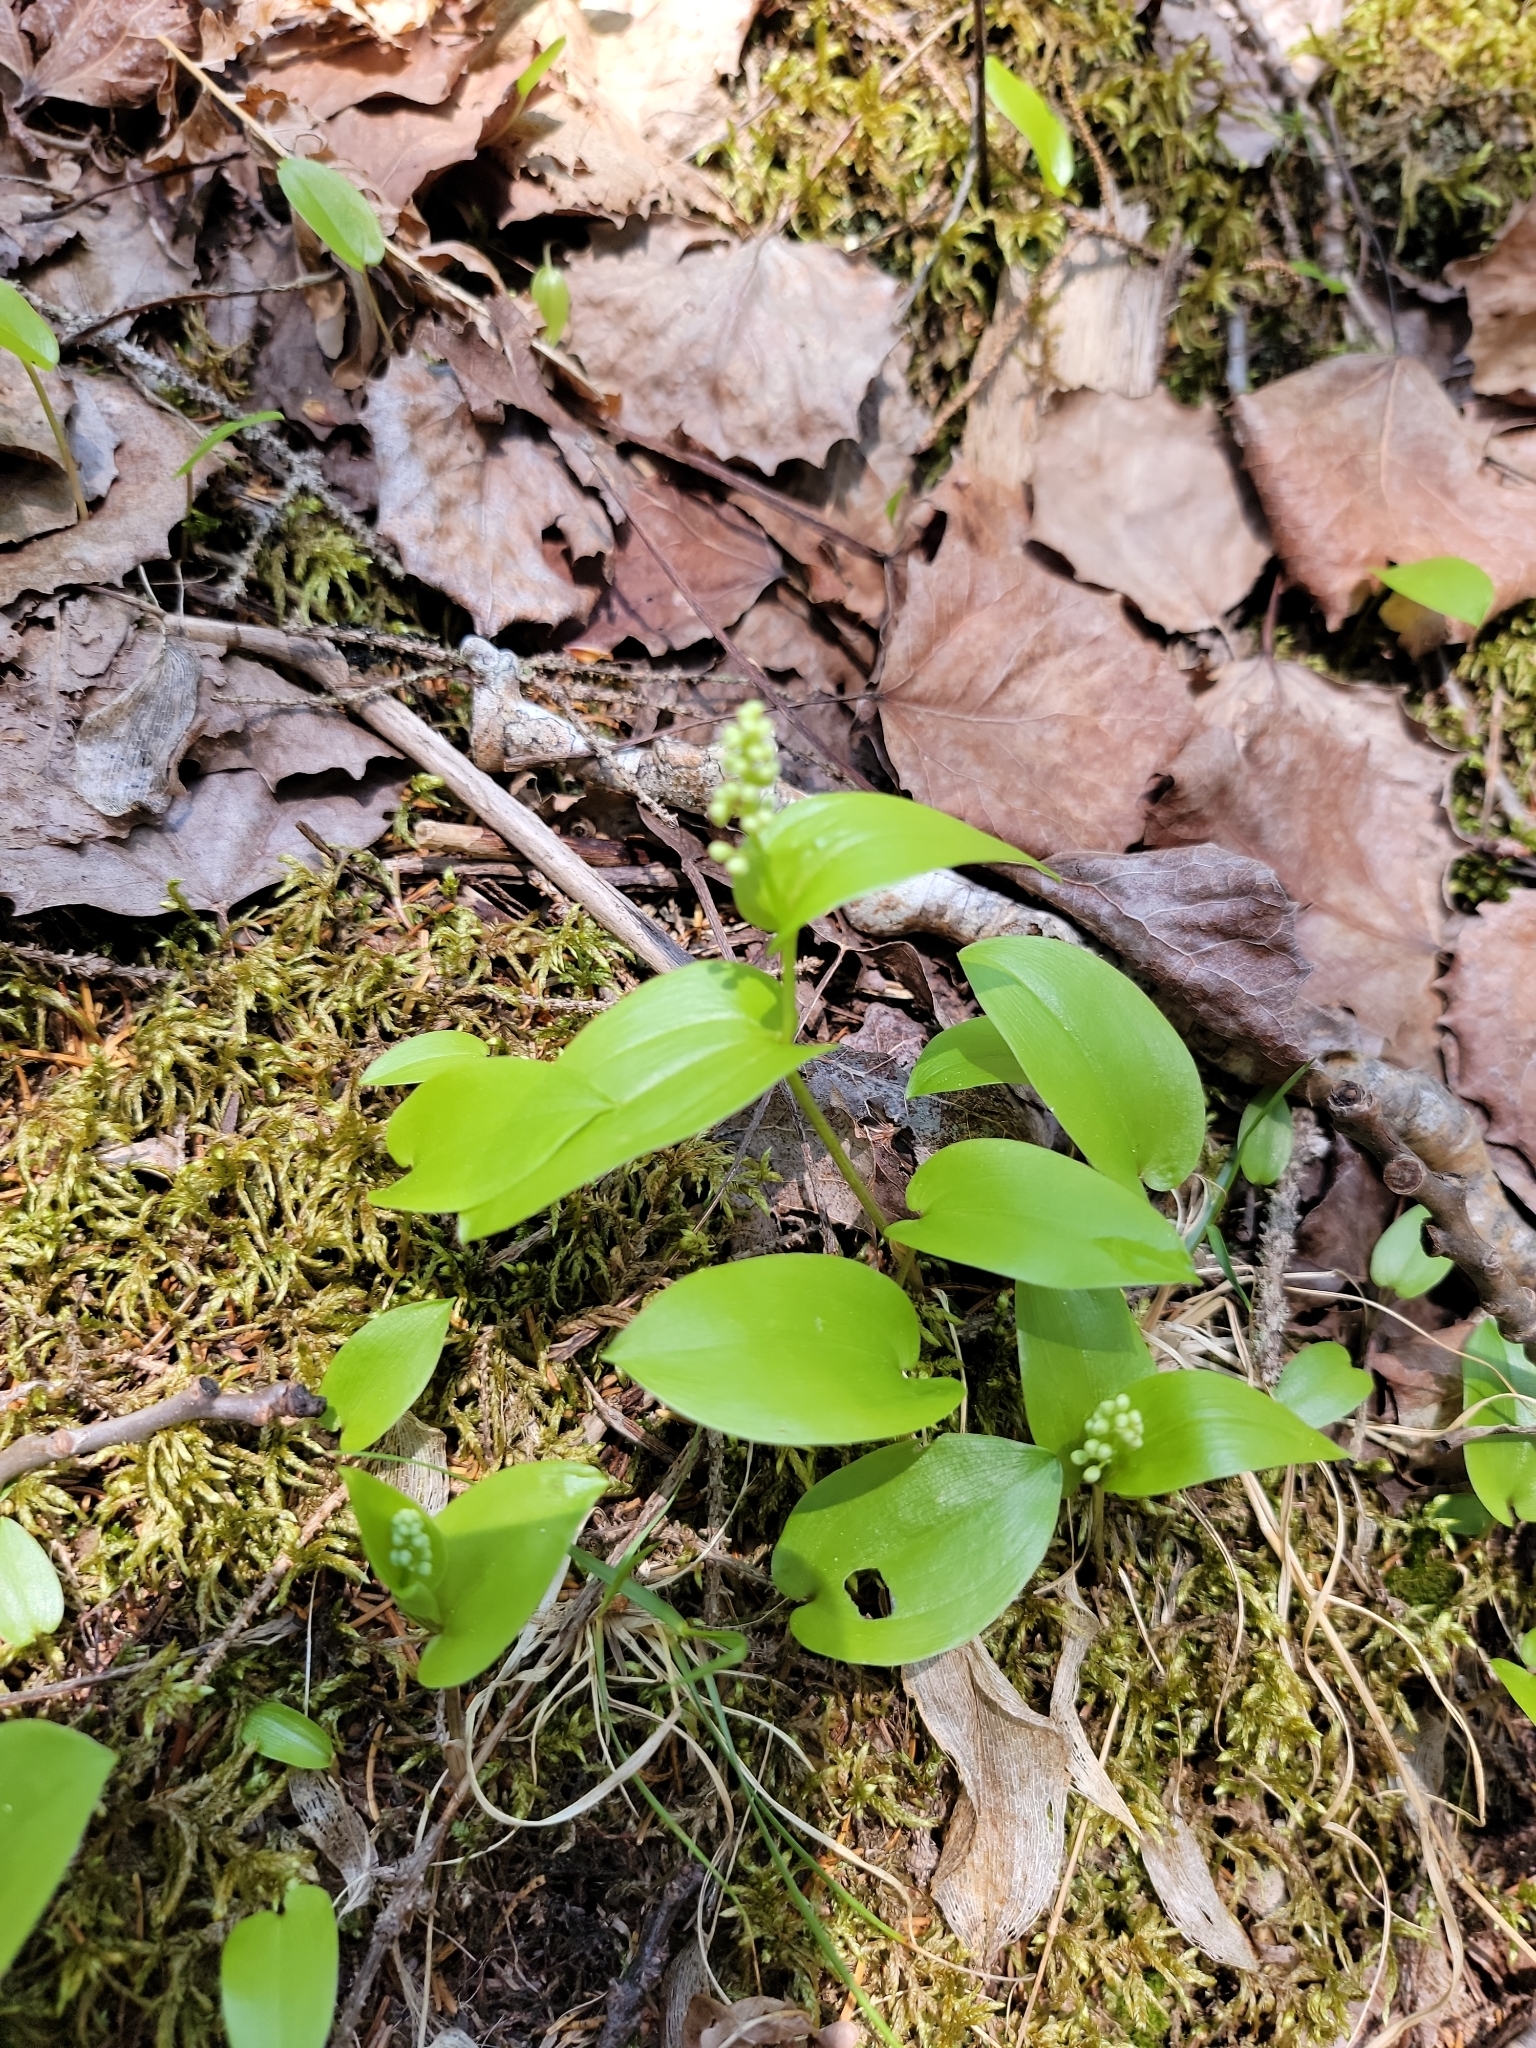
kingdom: Plantae
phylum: Tracheophyta
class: Liliopsida
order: Asparagales
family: Asparagaceae
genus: Maianthemum
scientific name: Maianthemum canadense
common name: False lily-of-the-valley
